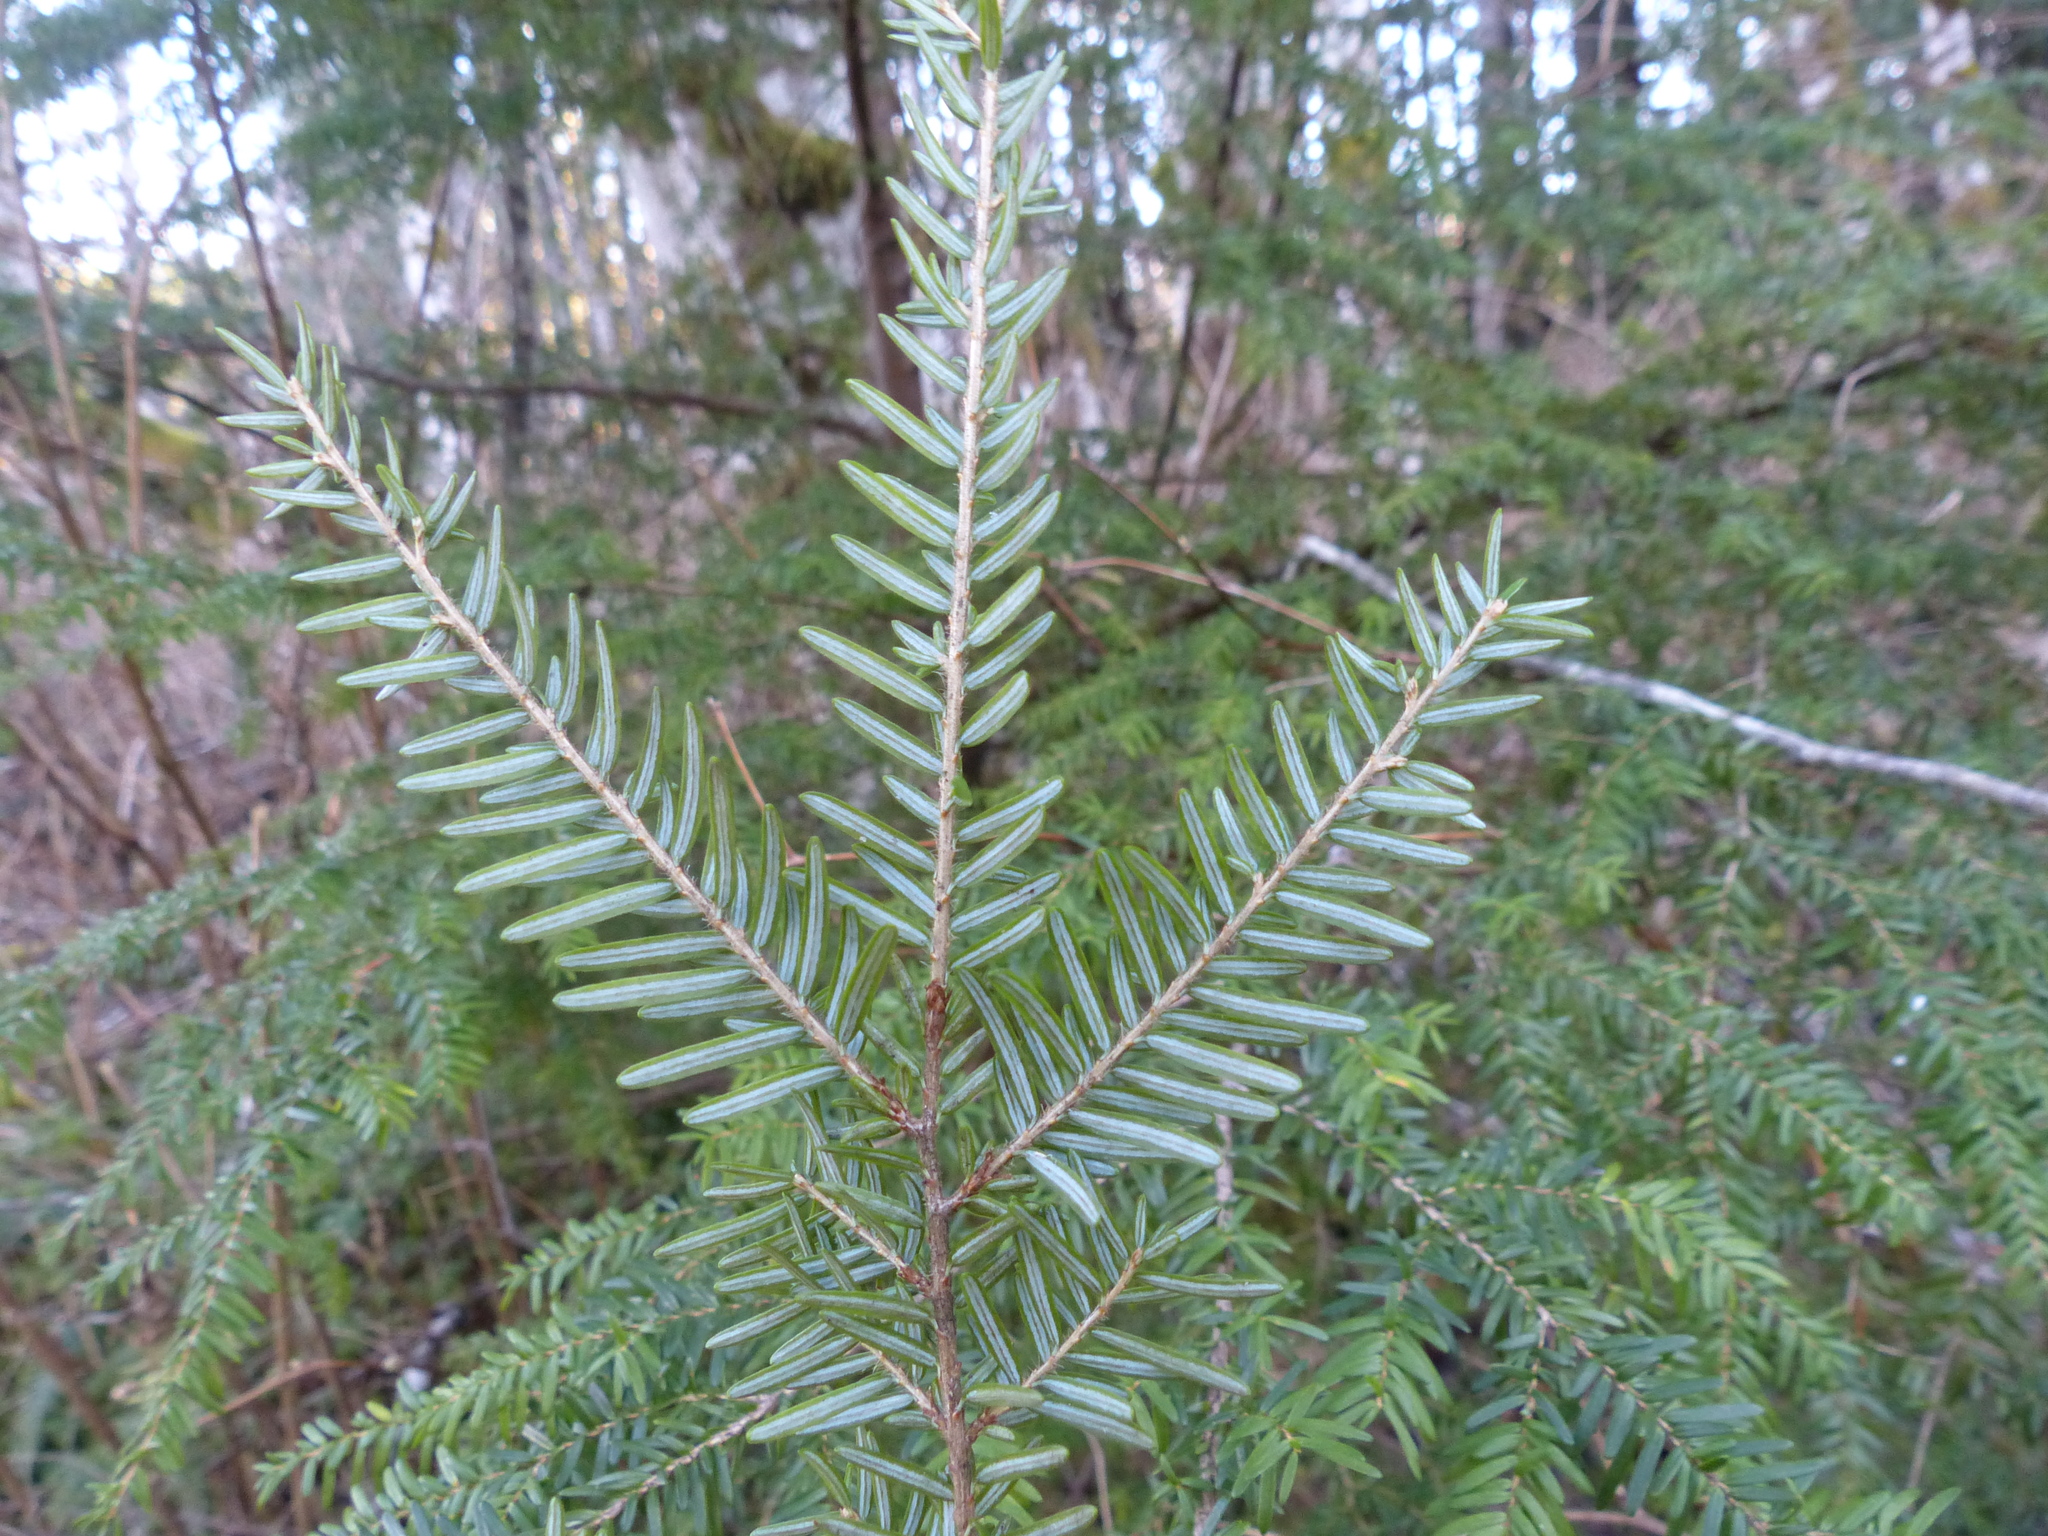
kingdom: Plantae
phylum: Tracheophyta
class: Pinopsida
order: Pinales
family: Pinaceae
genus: Tsuga
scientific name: Tsuga heterophylla
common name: Western hemlock
